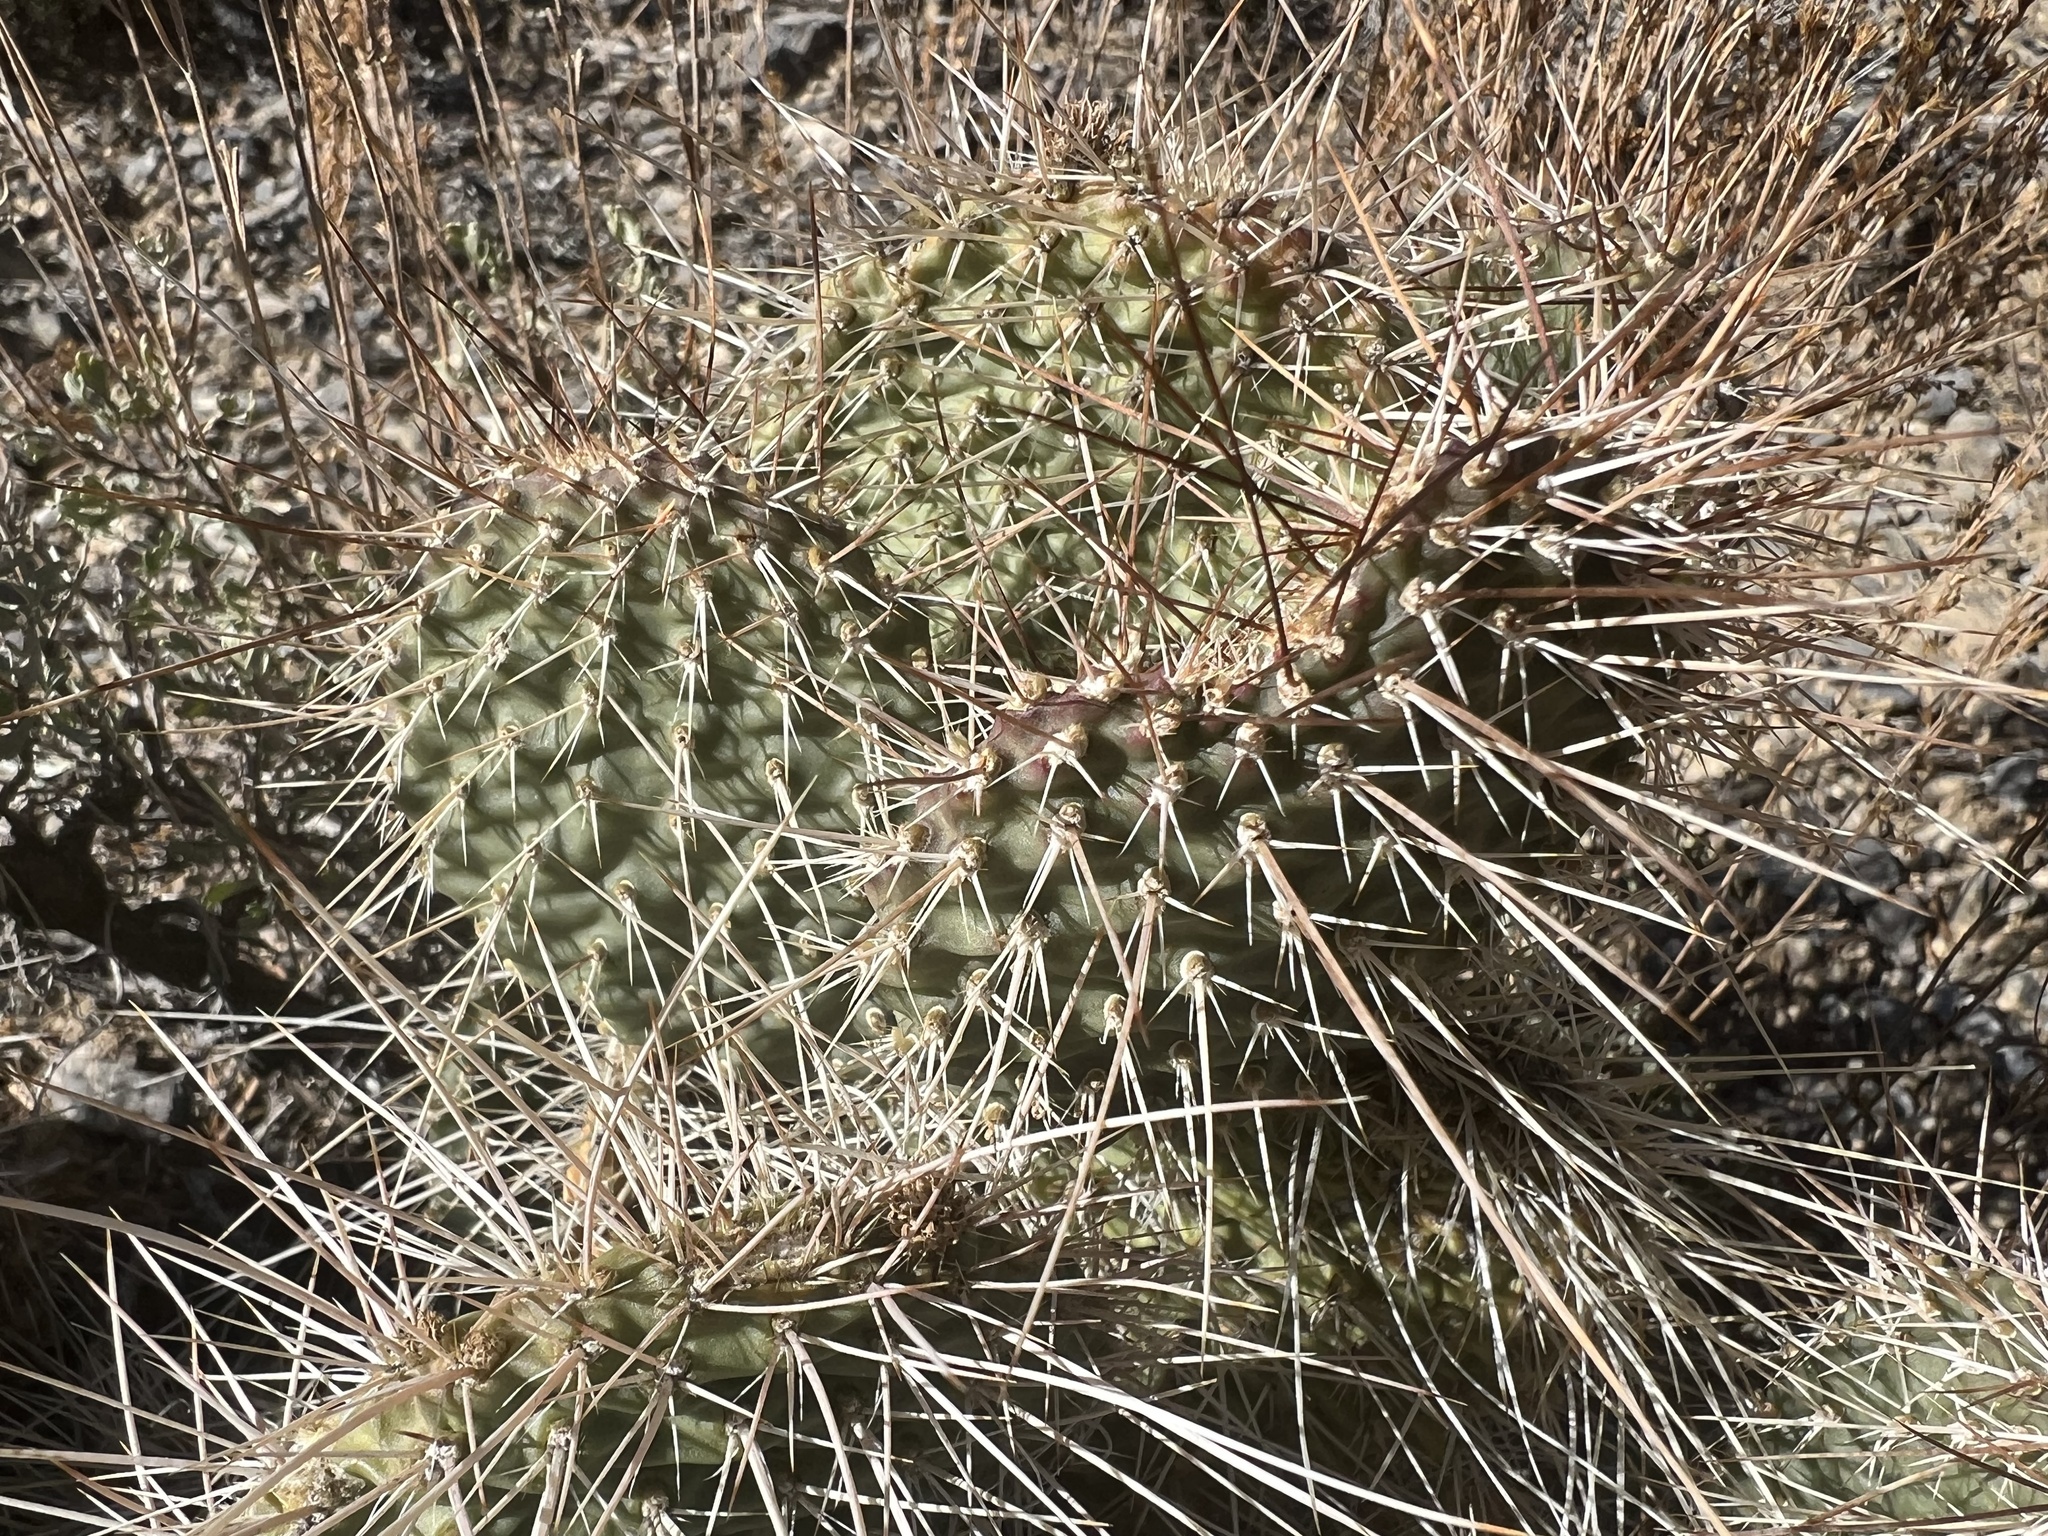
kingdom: Plantae
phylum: Tracheophyta
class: Magnoliopsida
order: Caryophyllales
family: Cactaceae
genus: Opuntia
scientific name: Opuntia polyacantha
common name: Plains prickly-pear
